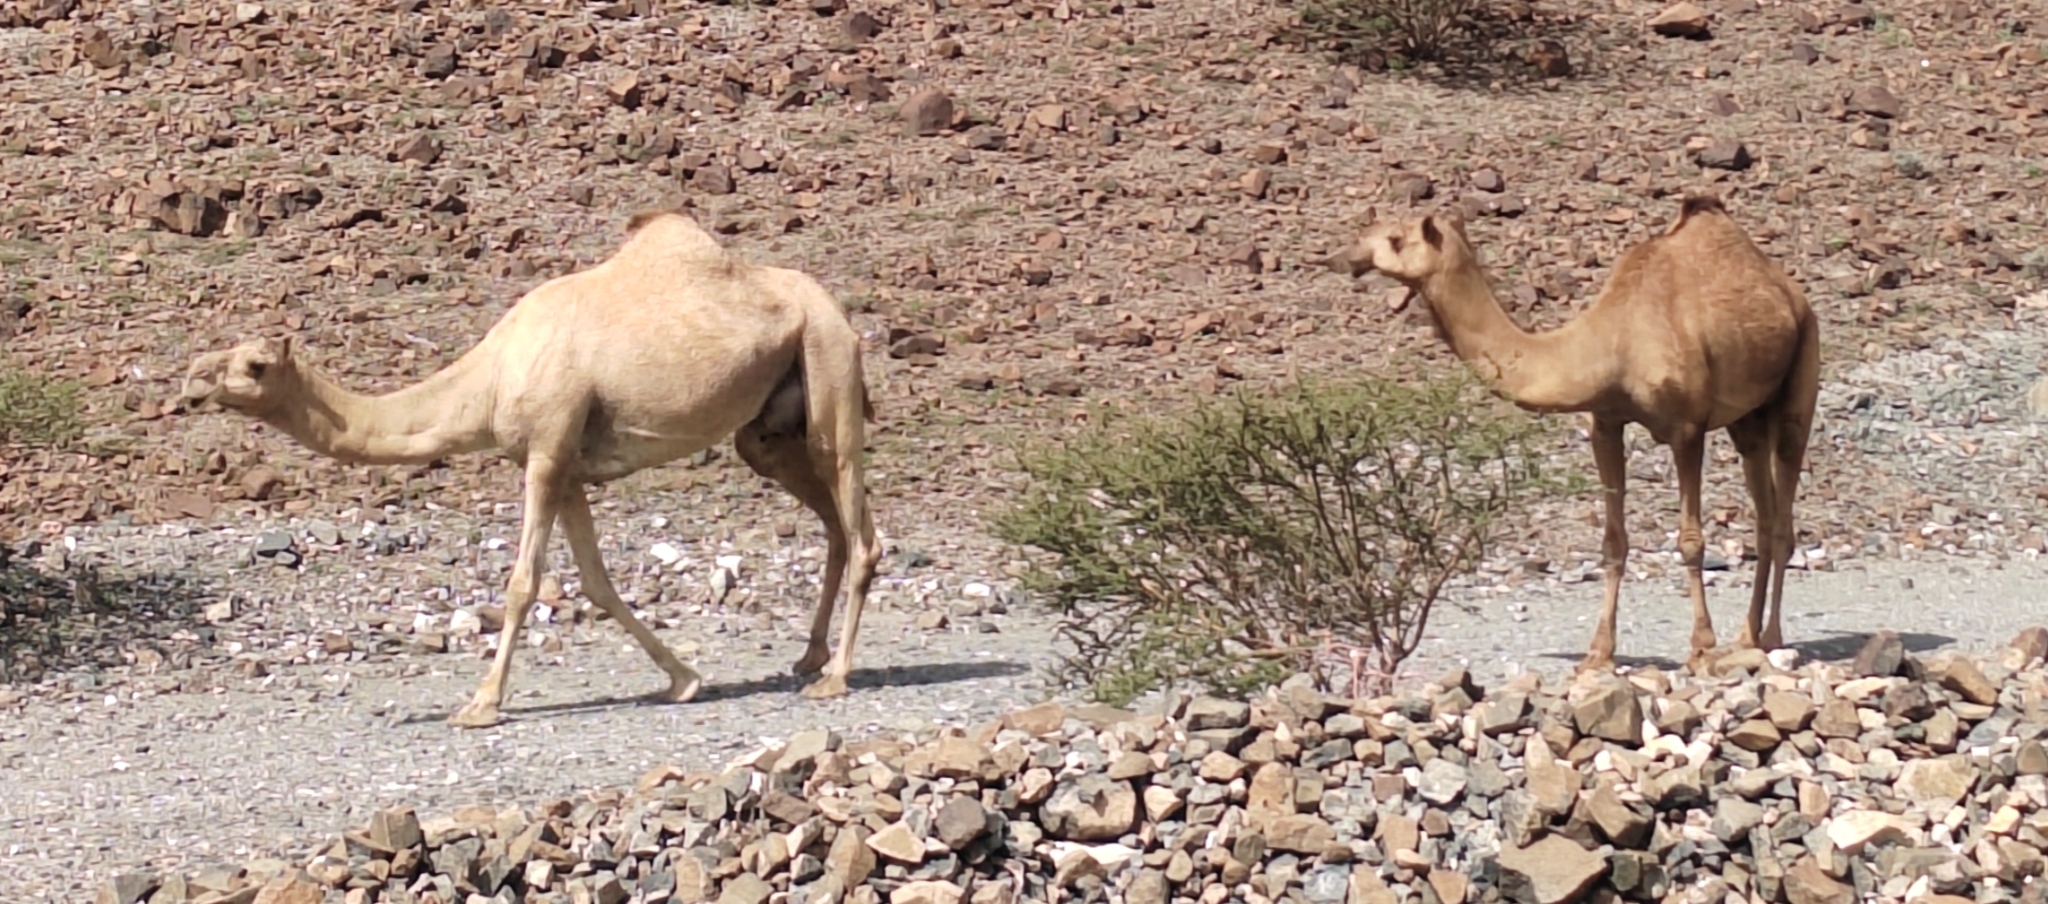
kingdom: Animalia
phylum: Chordata
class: Mammalia
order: Artiodactyla
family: Camelidae
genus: Camelus
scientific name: Camelus dromedarius
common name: One-humped camel
